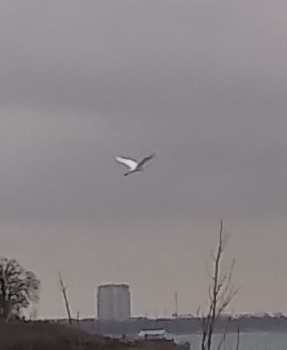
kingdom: Animalia
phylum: Chordata
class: Aves
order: Pelecaniformes
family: Ardeidae
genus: Ardea
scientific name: Ardea alba
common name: Great egret
